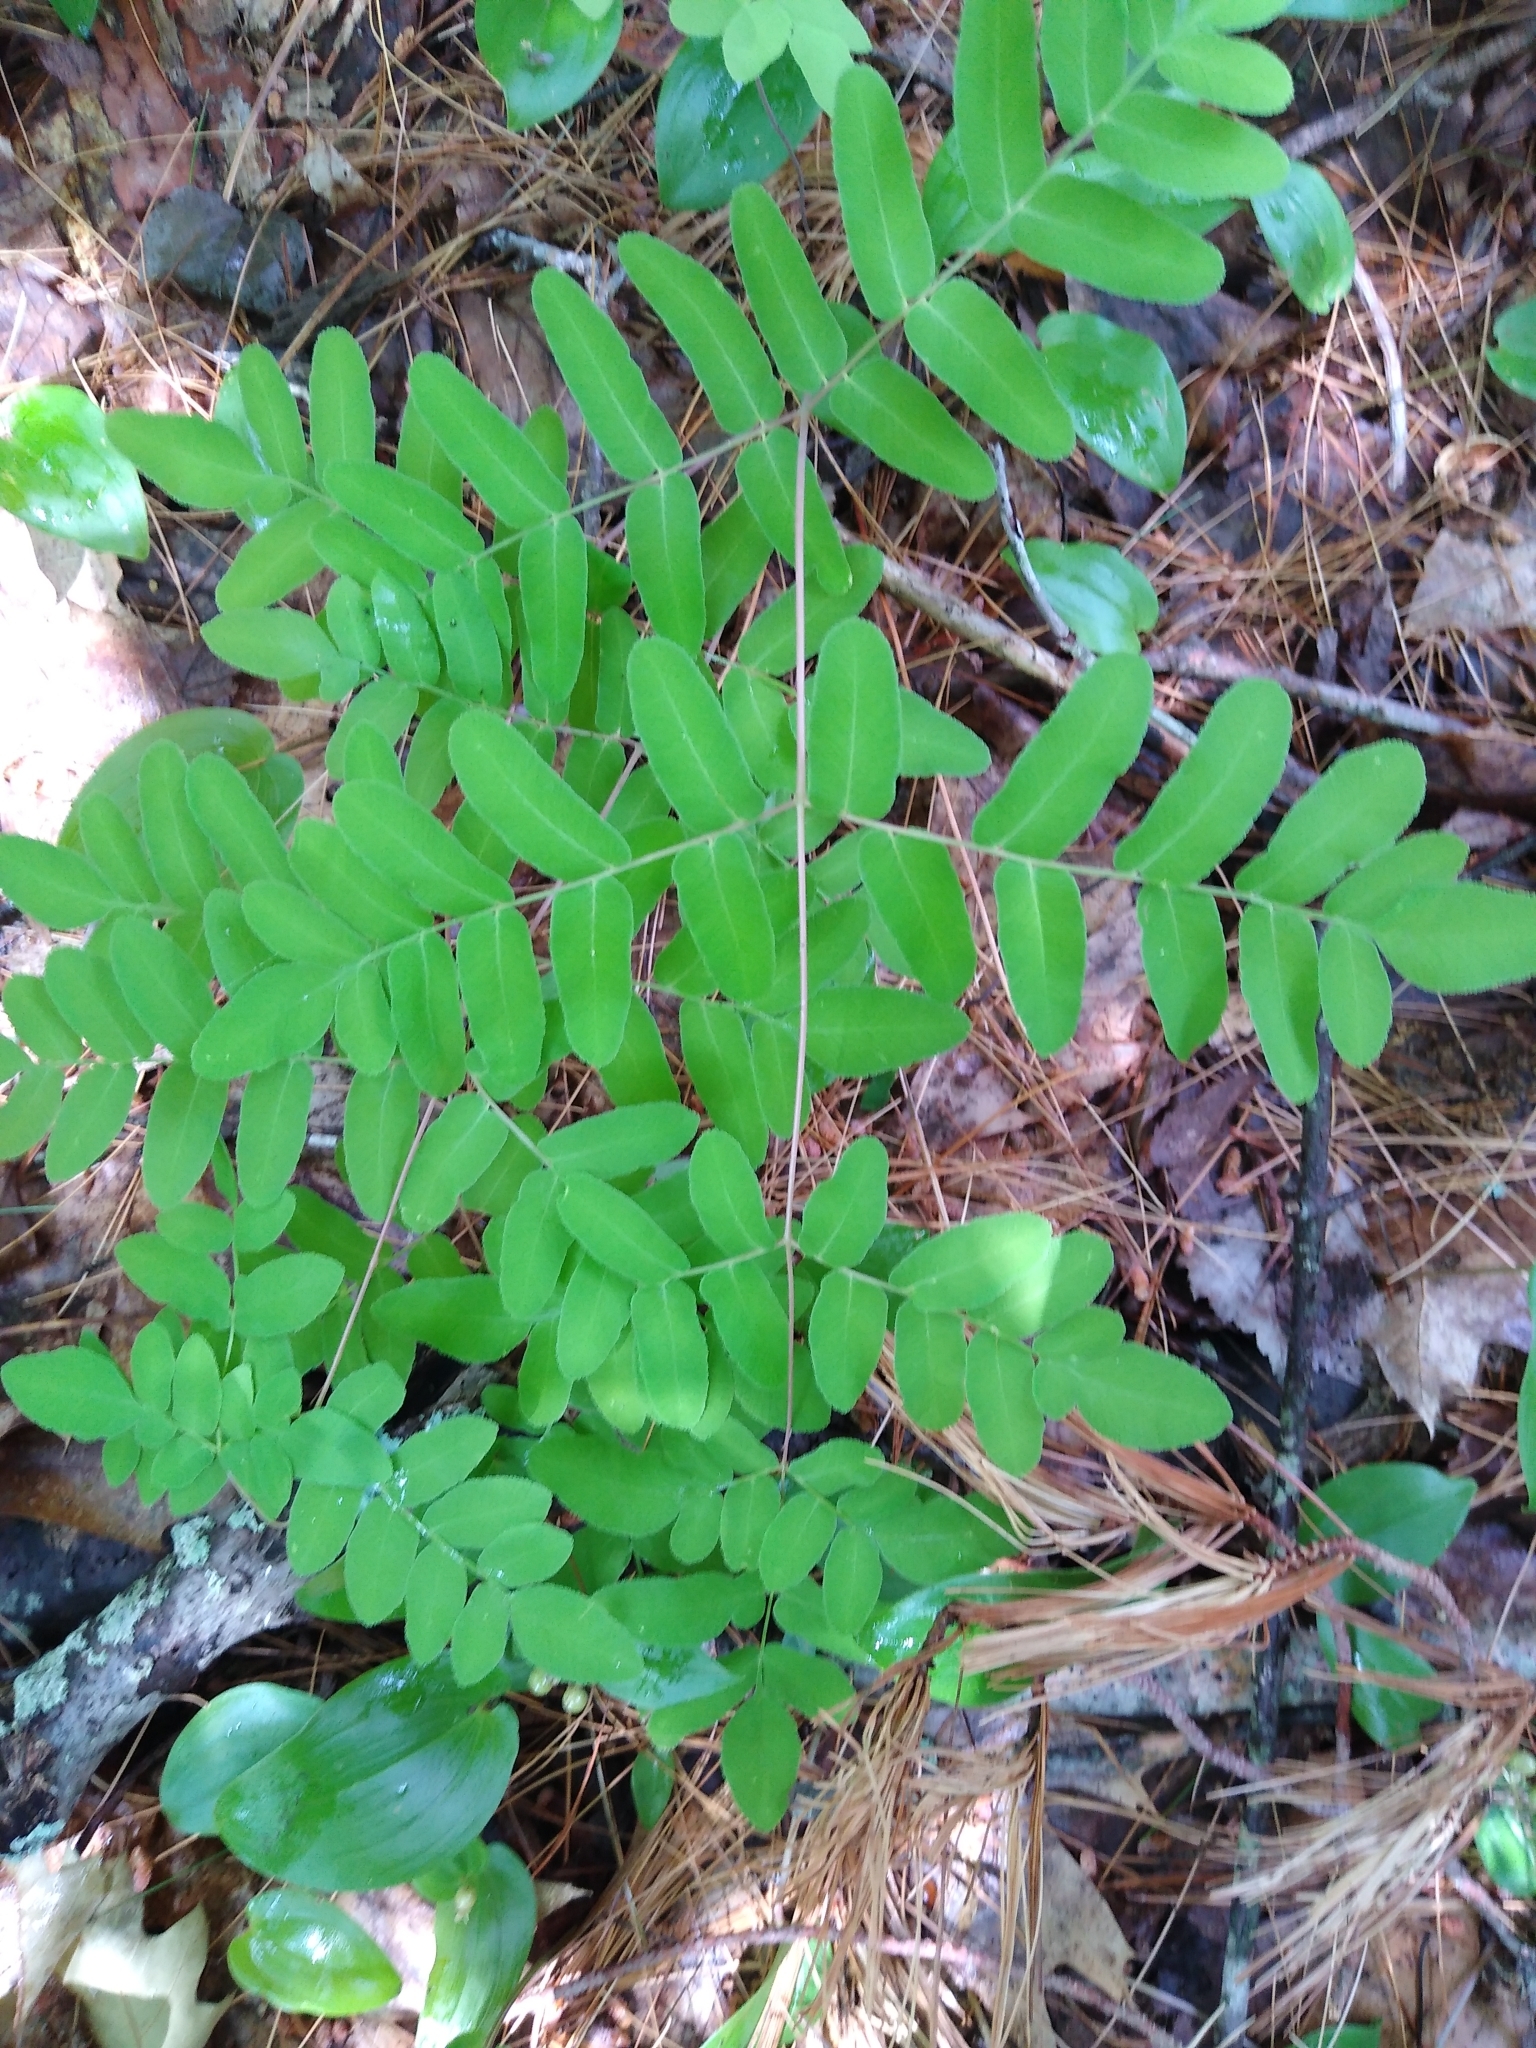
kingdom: Plantae
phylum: Tracheophyta
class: Polypodiopsida
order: Osmundales
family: Osmundaceae
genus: Osmunda
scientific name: Osmunda spectabilis
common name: American royal fern
